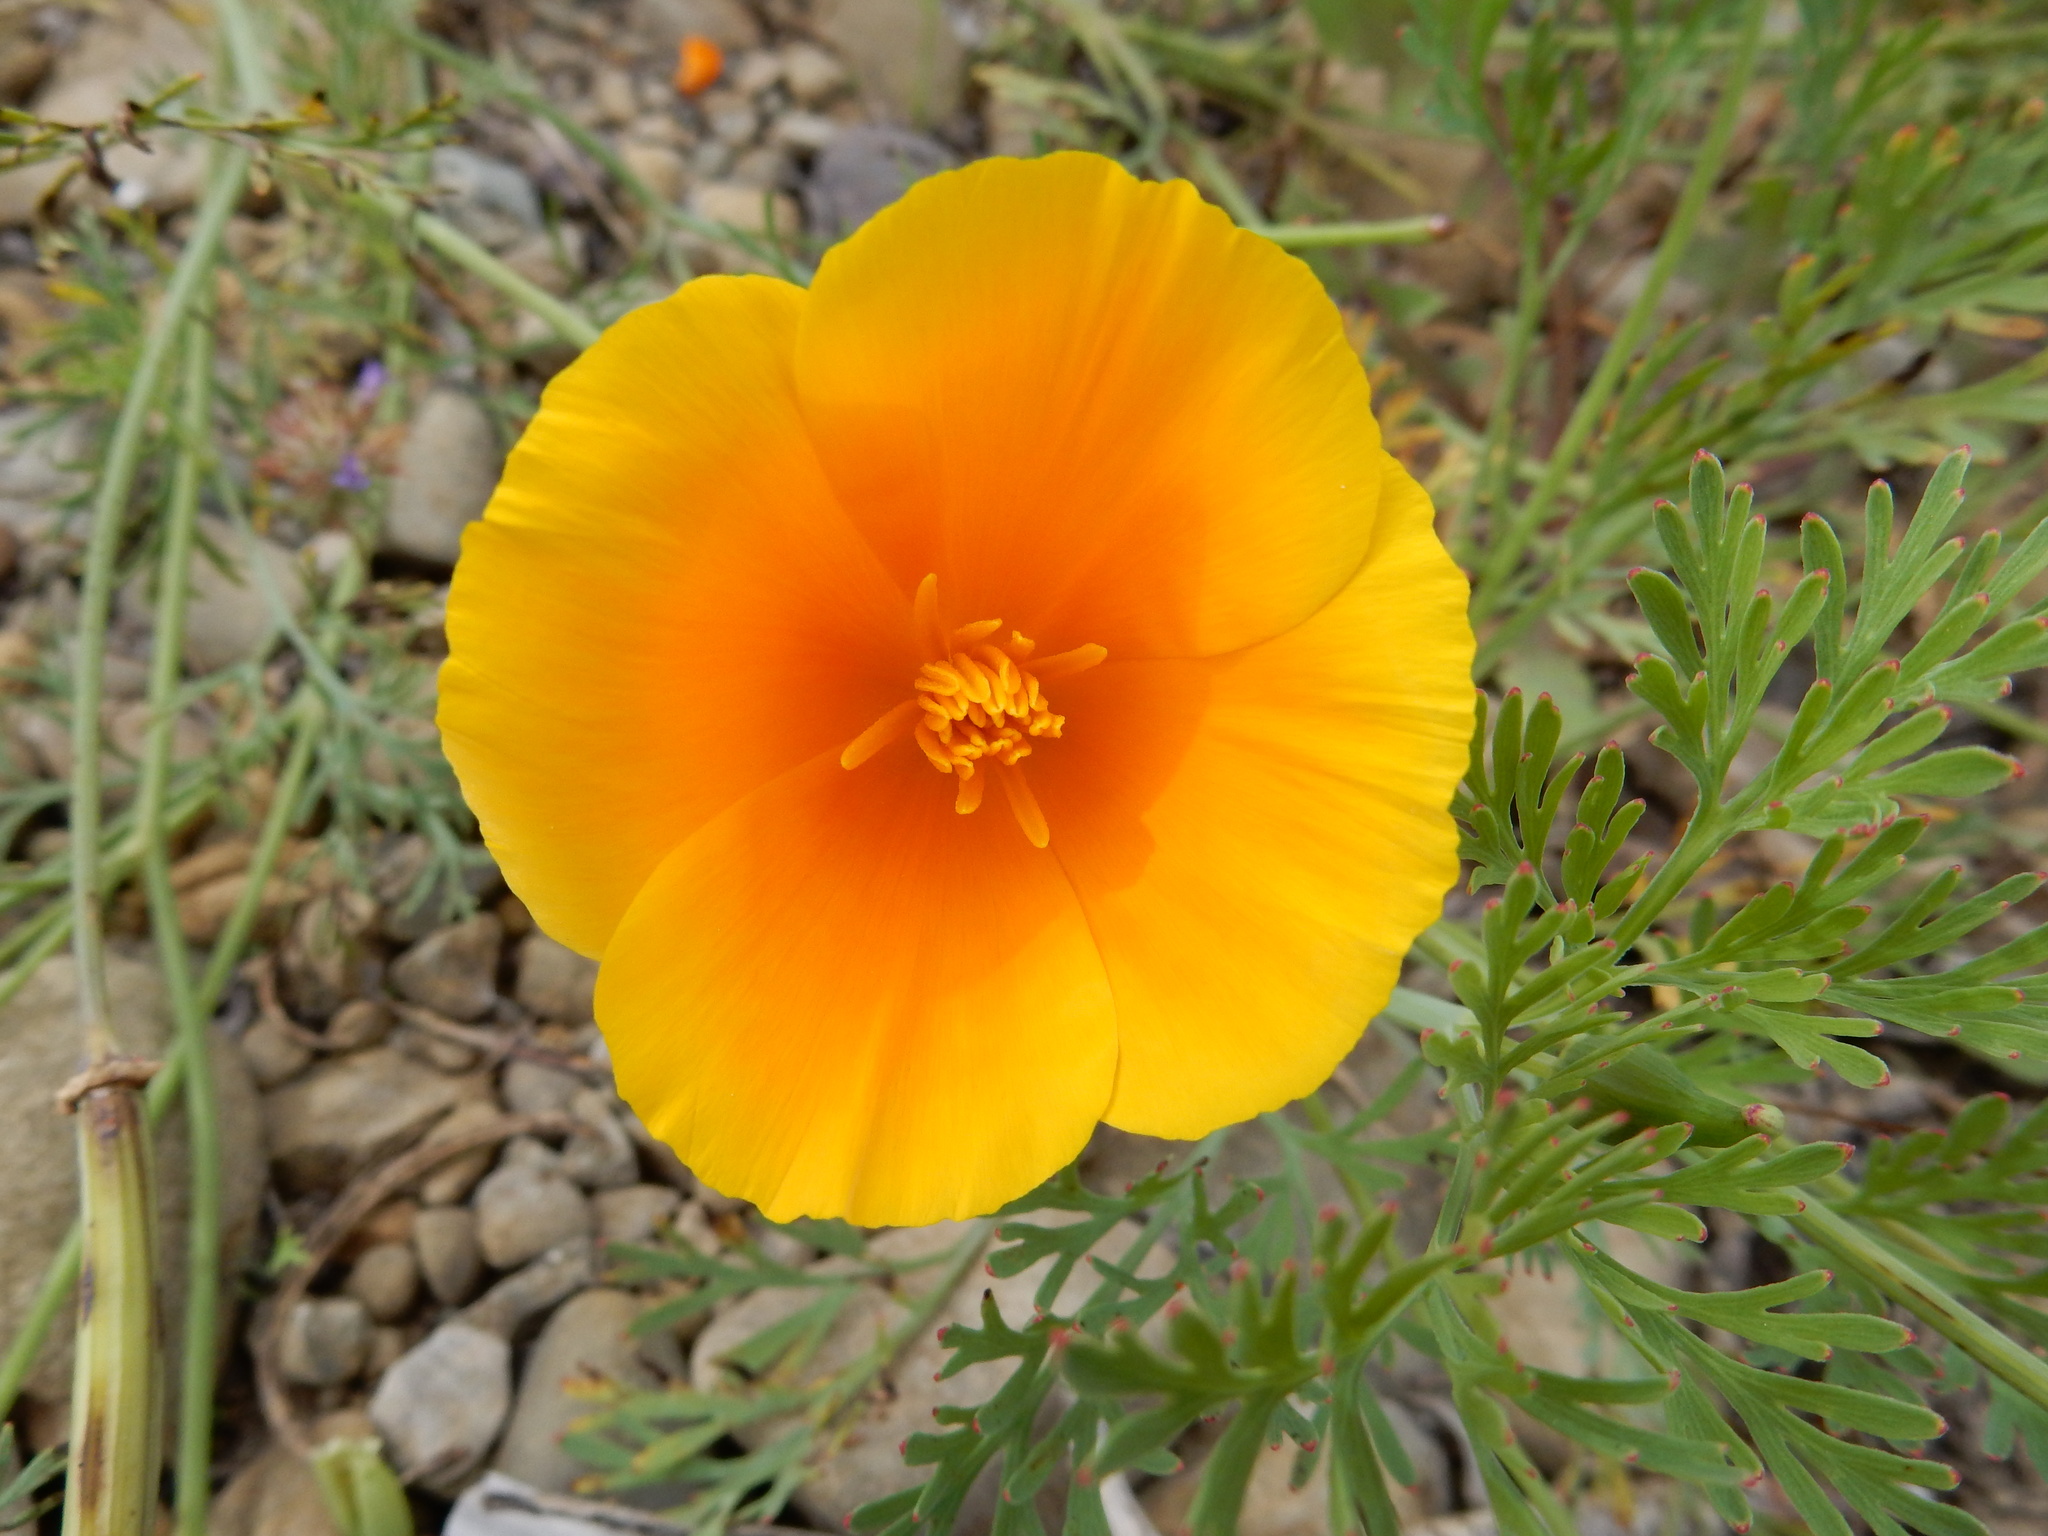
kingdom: Plantae
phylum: Tracheophyta
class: Magnoliopsida
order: Ranunculales
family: Papaveraceae
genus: Eschscholzia
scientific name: Eschscholzia californica
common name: California poppy
